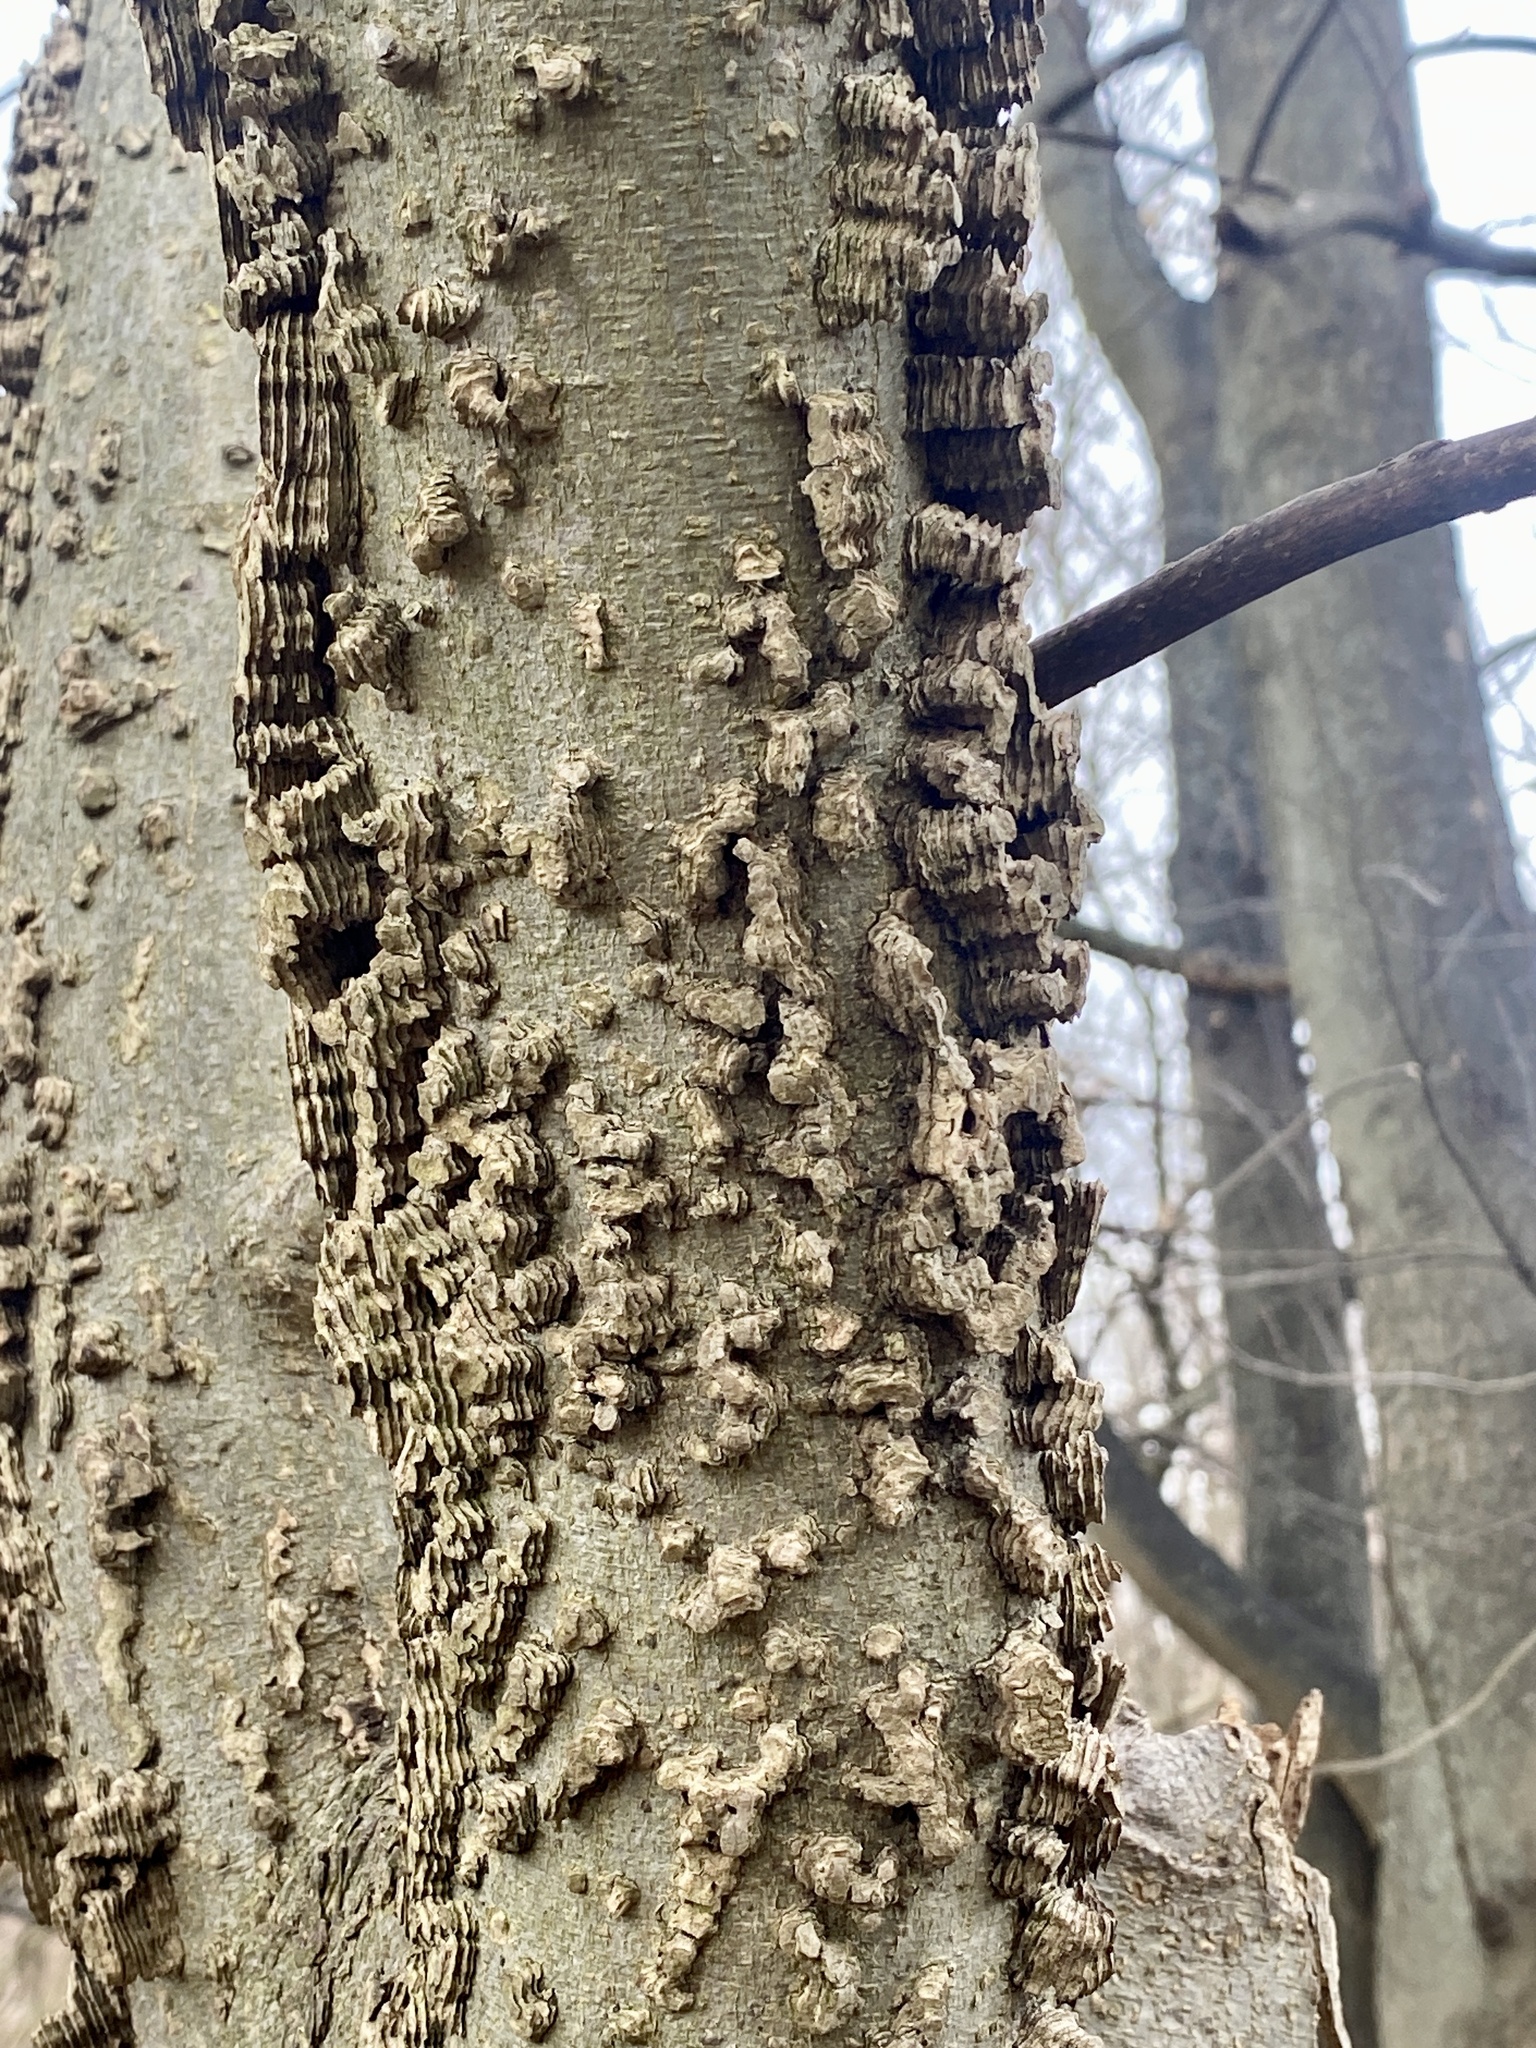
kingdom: Plantae
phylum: Tracheophyta
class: Magnoliopsida
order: Rosales
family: Cannabaceae
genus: Celtis
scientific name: Celtis occidentalis
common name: Common hackberry
